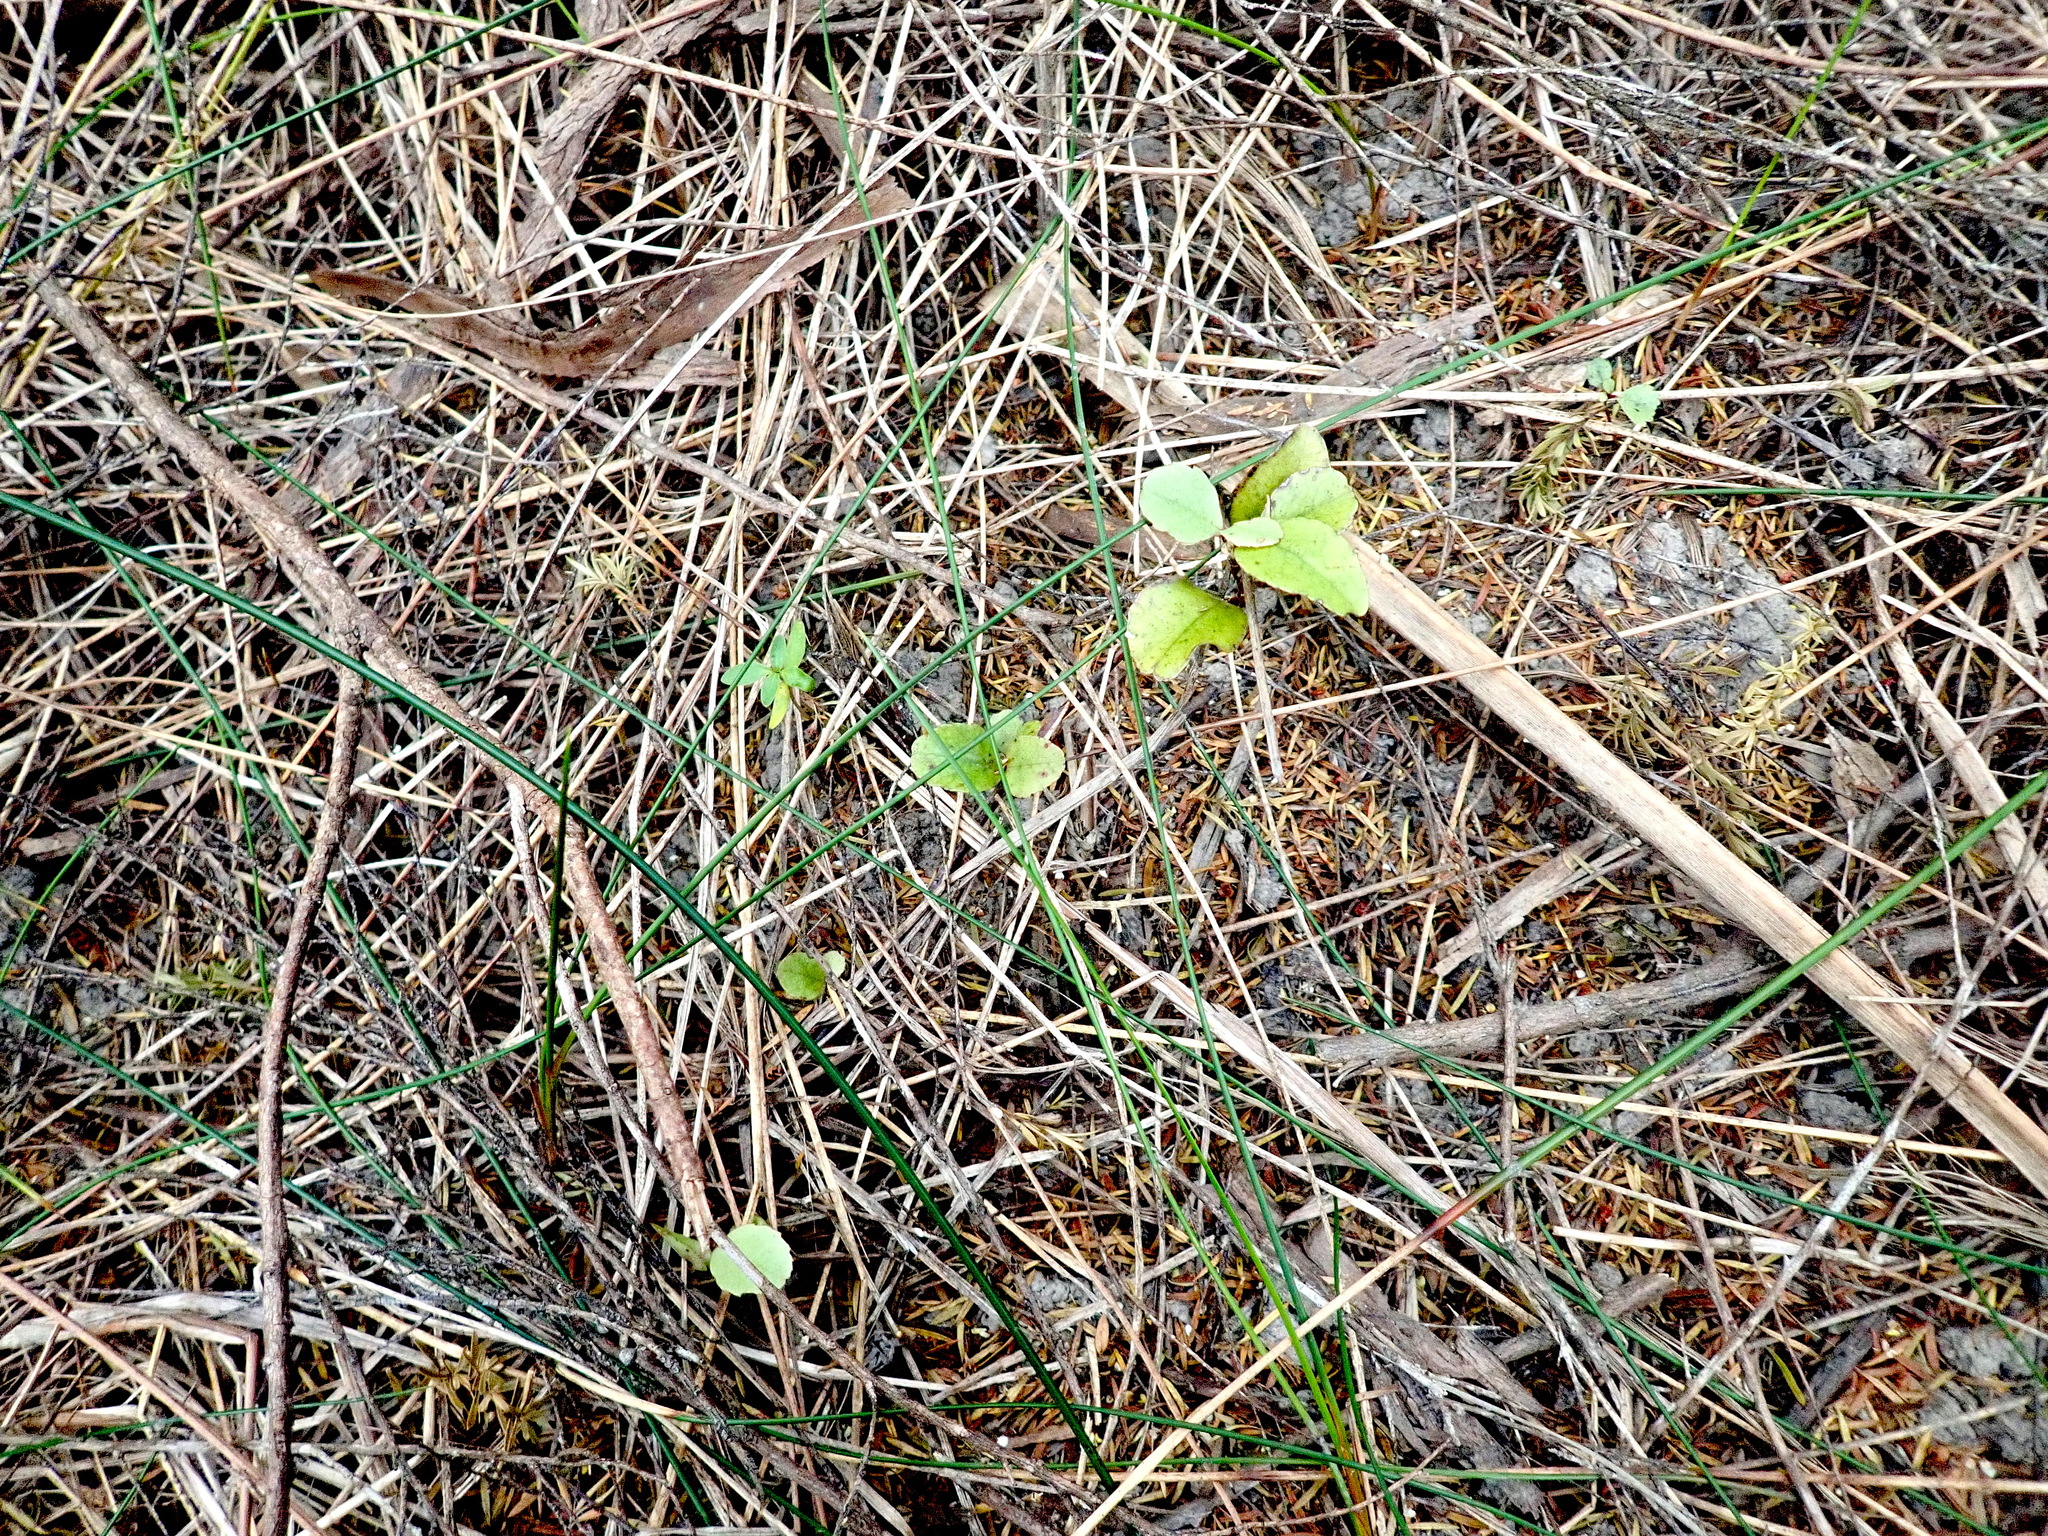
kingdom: Plantae
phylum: Tracheophyta
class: Magnoliopsida
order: Ericales
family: Primulaceae
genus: Myrsine
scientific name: Myrsine australis
